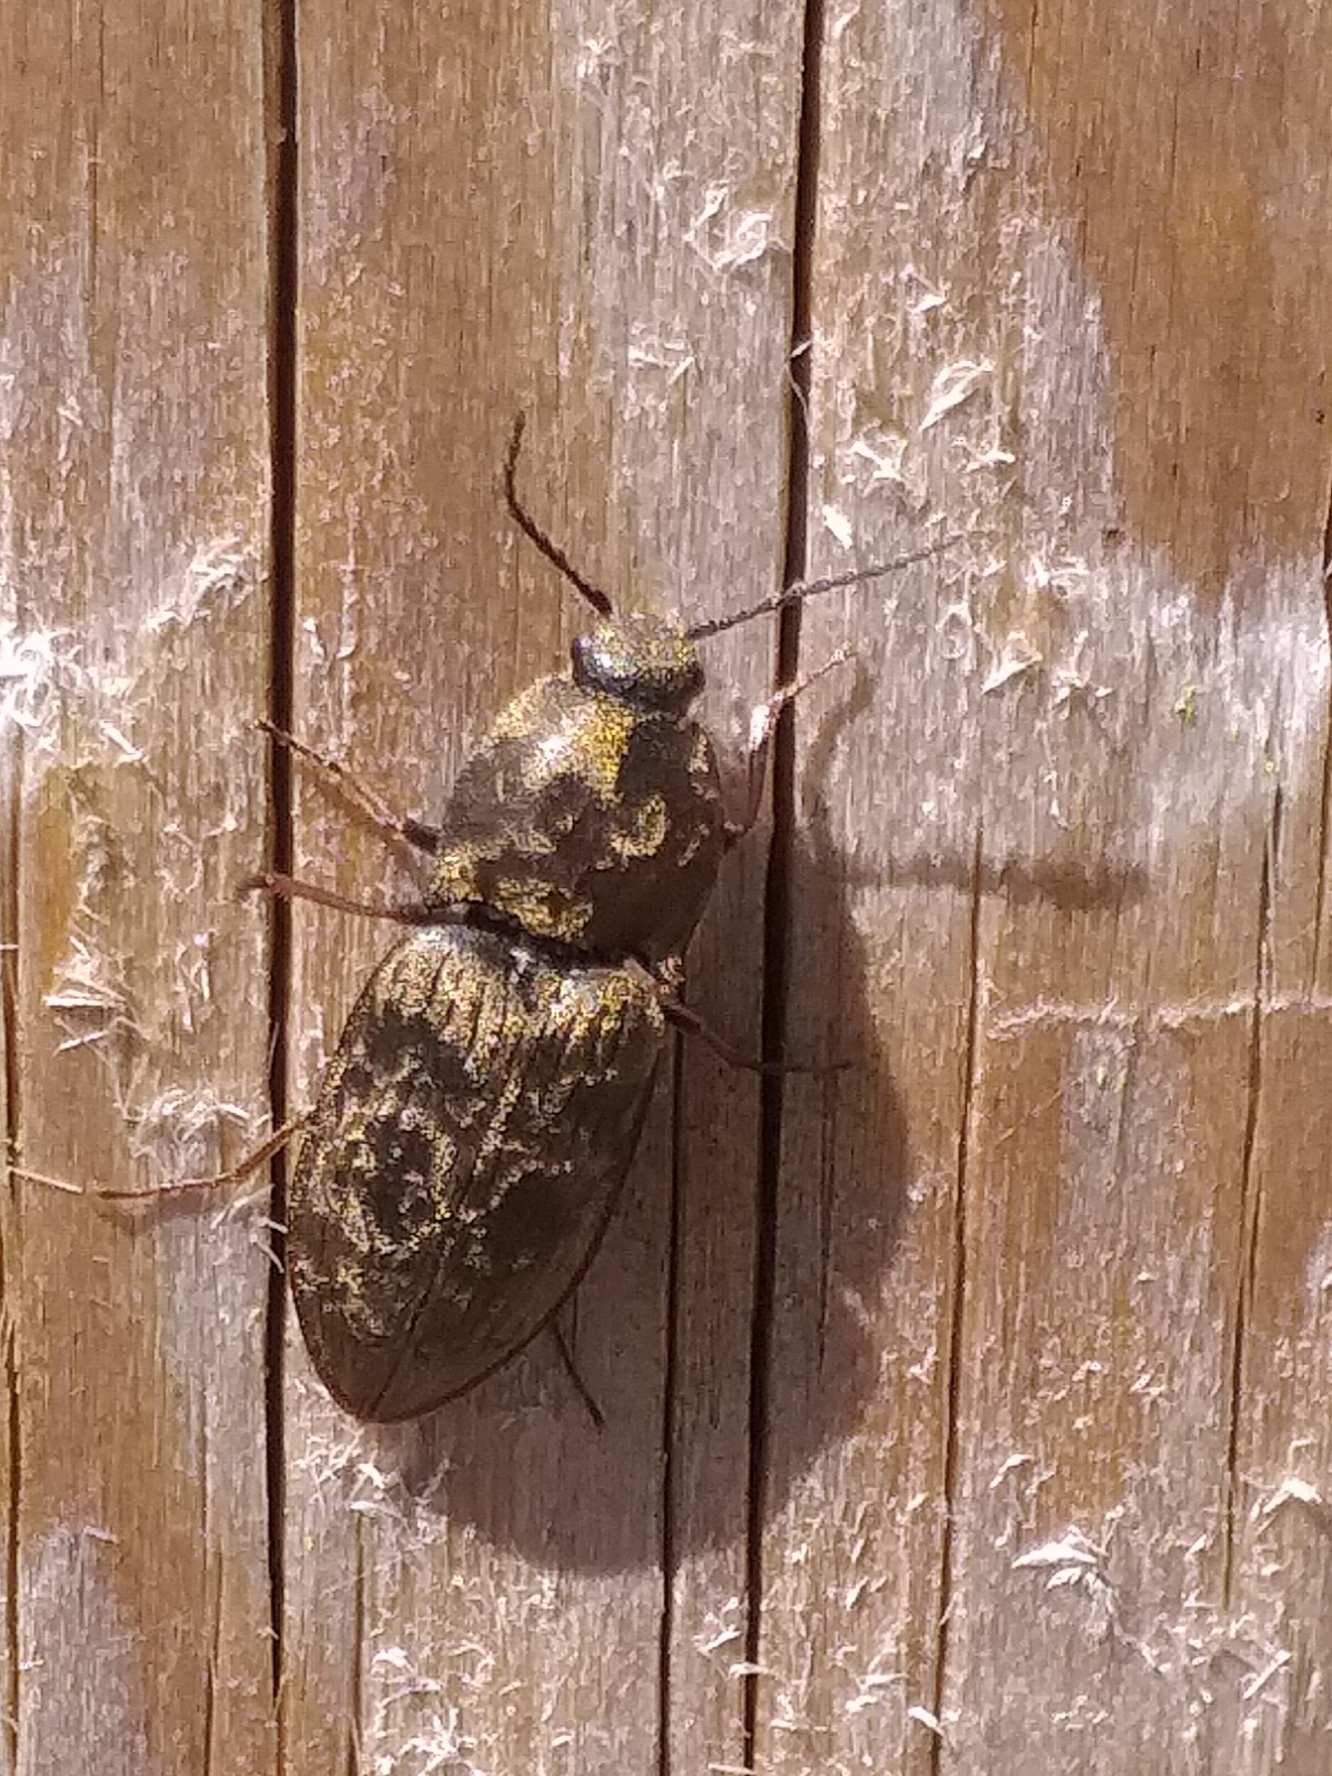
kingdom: Animalia
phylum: Arthropoda
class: Insecta
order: Coleoptera
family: Elateridae
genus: Prosternon
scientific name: Prosternon tessellatum
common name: Chequered click beetle
